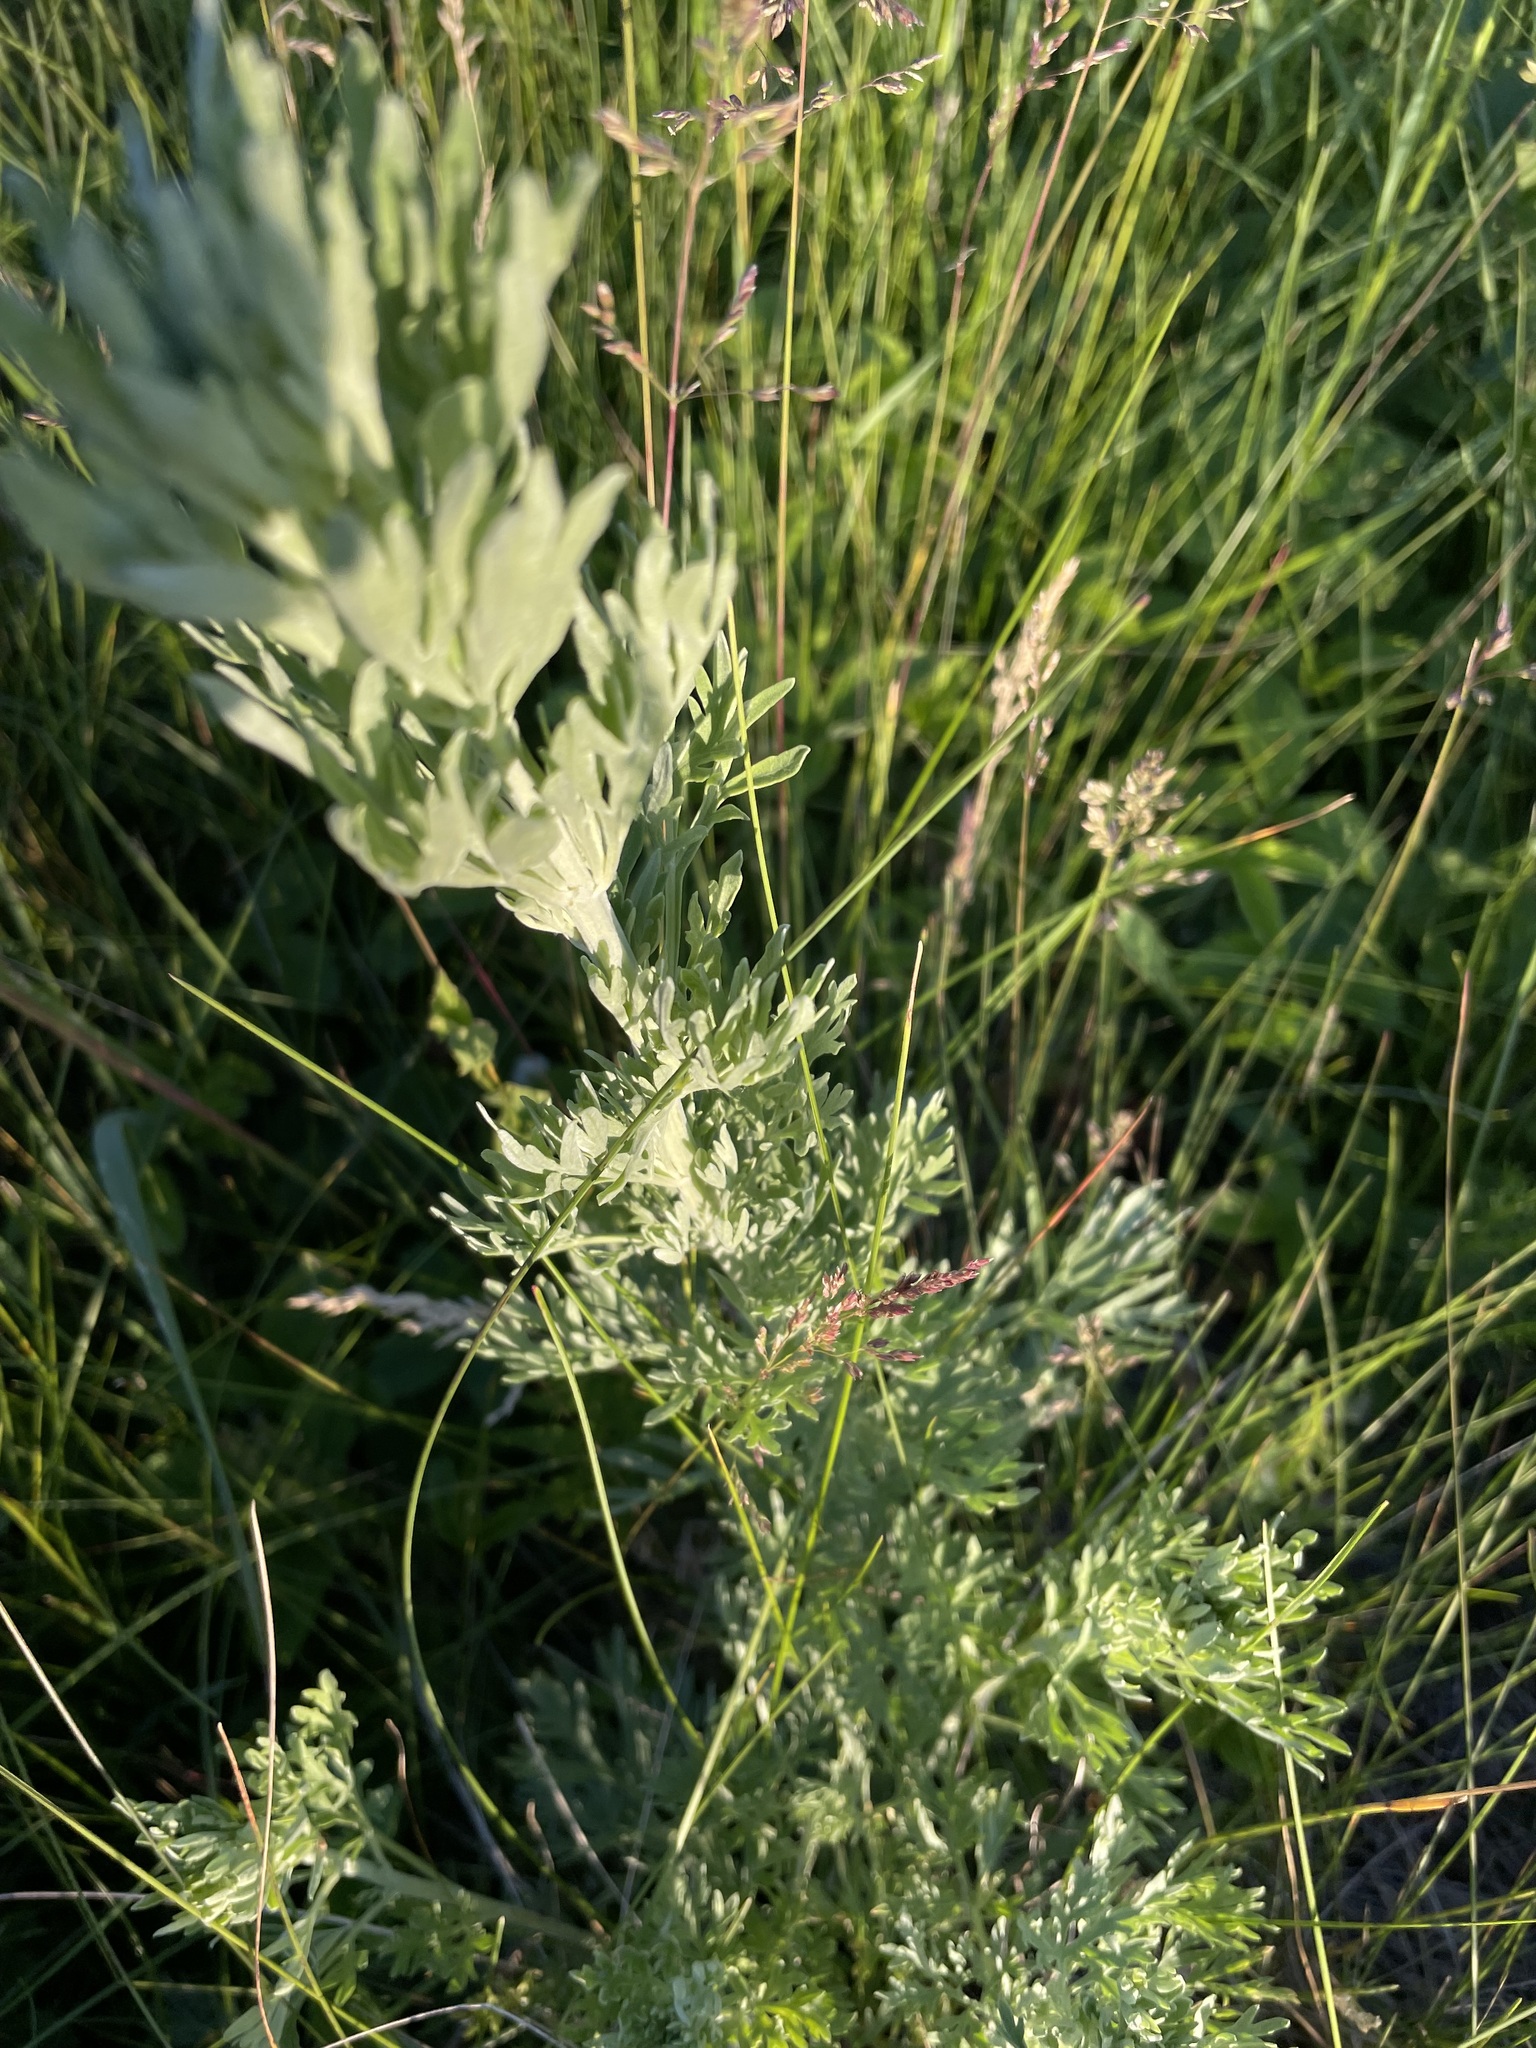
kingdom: Plantae
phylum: Tracheophyta
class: Magnoliopsida
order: Asterales
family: Asteraceae
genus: Artemisia
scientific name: Artemisia absinthium
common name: Wormwood
